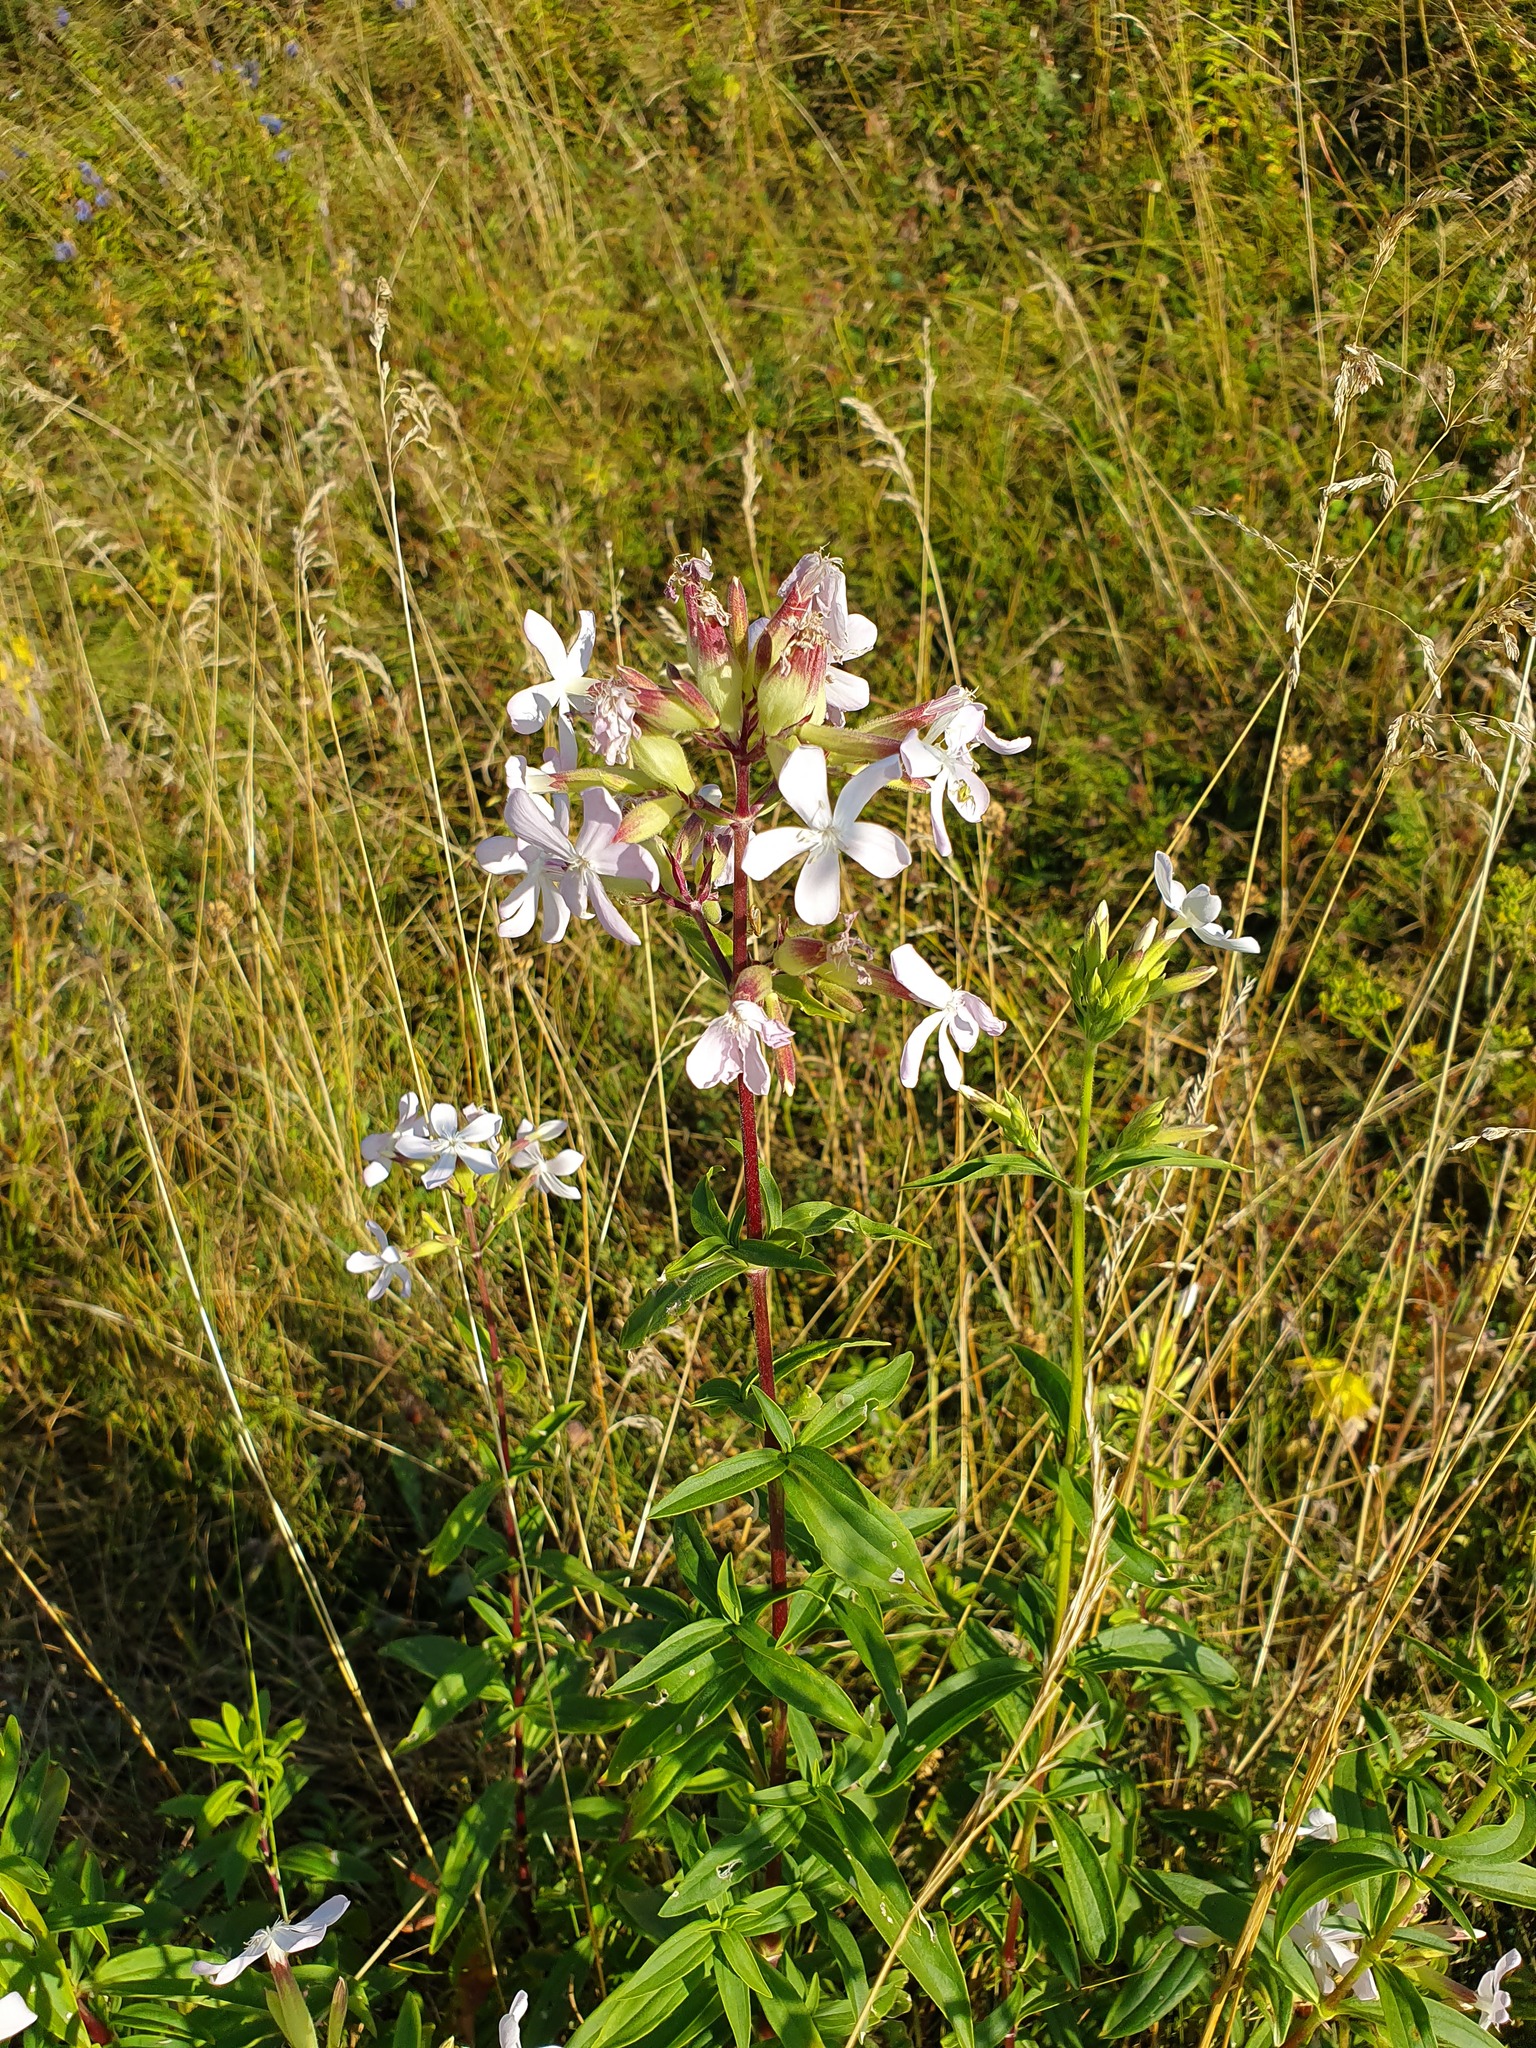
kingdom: Plantae
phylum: Tracheophyta
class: Magnoliopsida
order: Caryophyllales
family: Caryophyllaceae
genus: Saponaria
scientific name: Saponaria officinalis
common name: Soapwort
